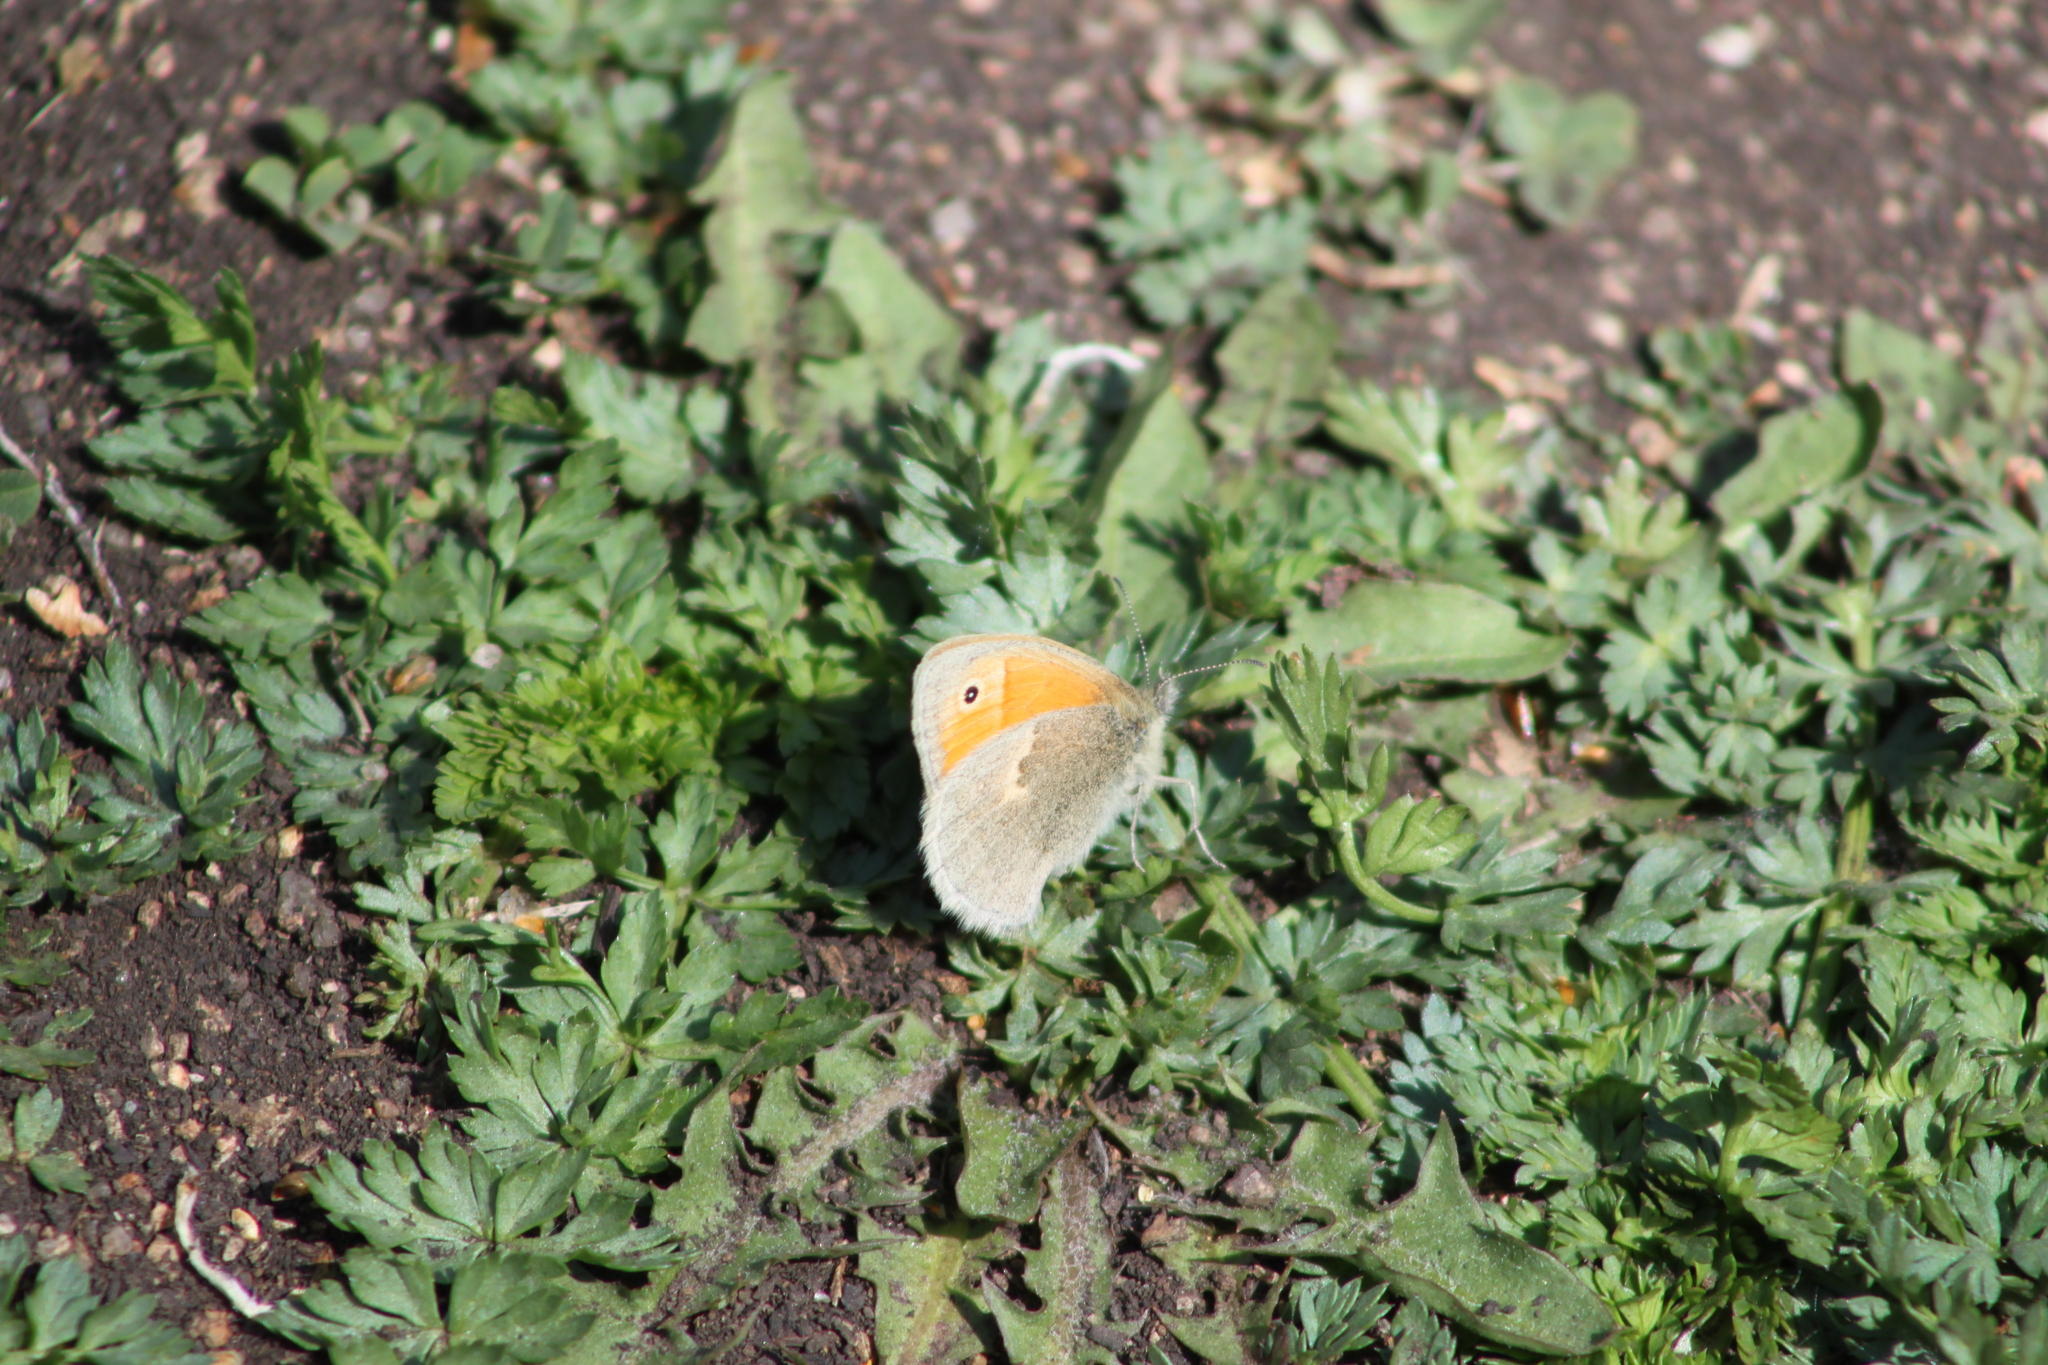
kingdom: Animalia
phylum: Arthropoda
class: Insecta
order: Lepidoptera
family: Nymphalidae
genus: Coenonympha
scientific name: Coenonympha pamphilus
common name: Small heath
